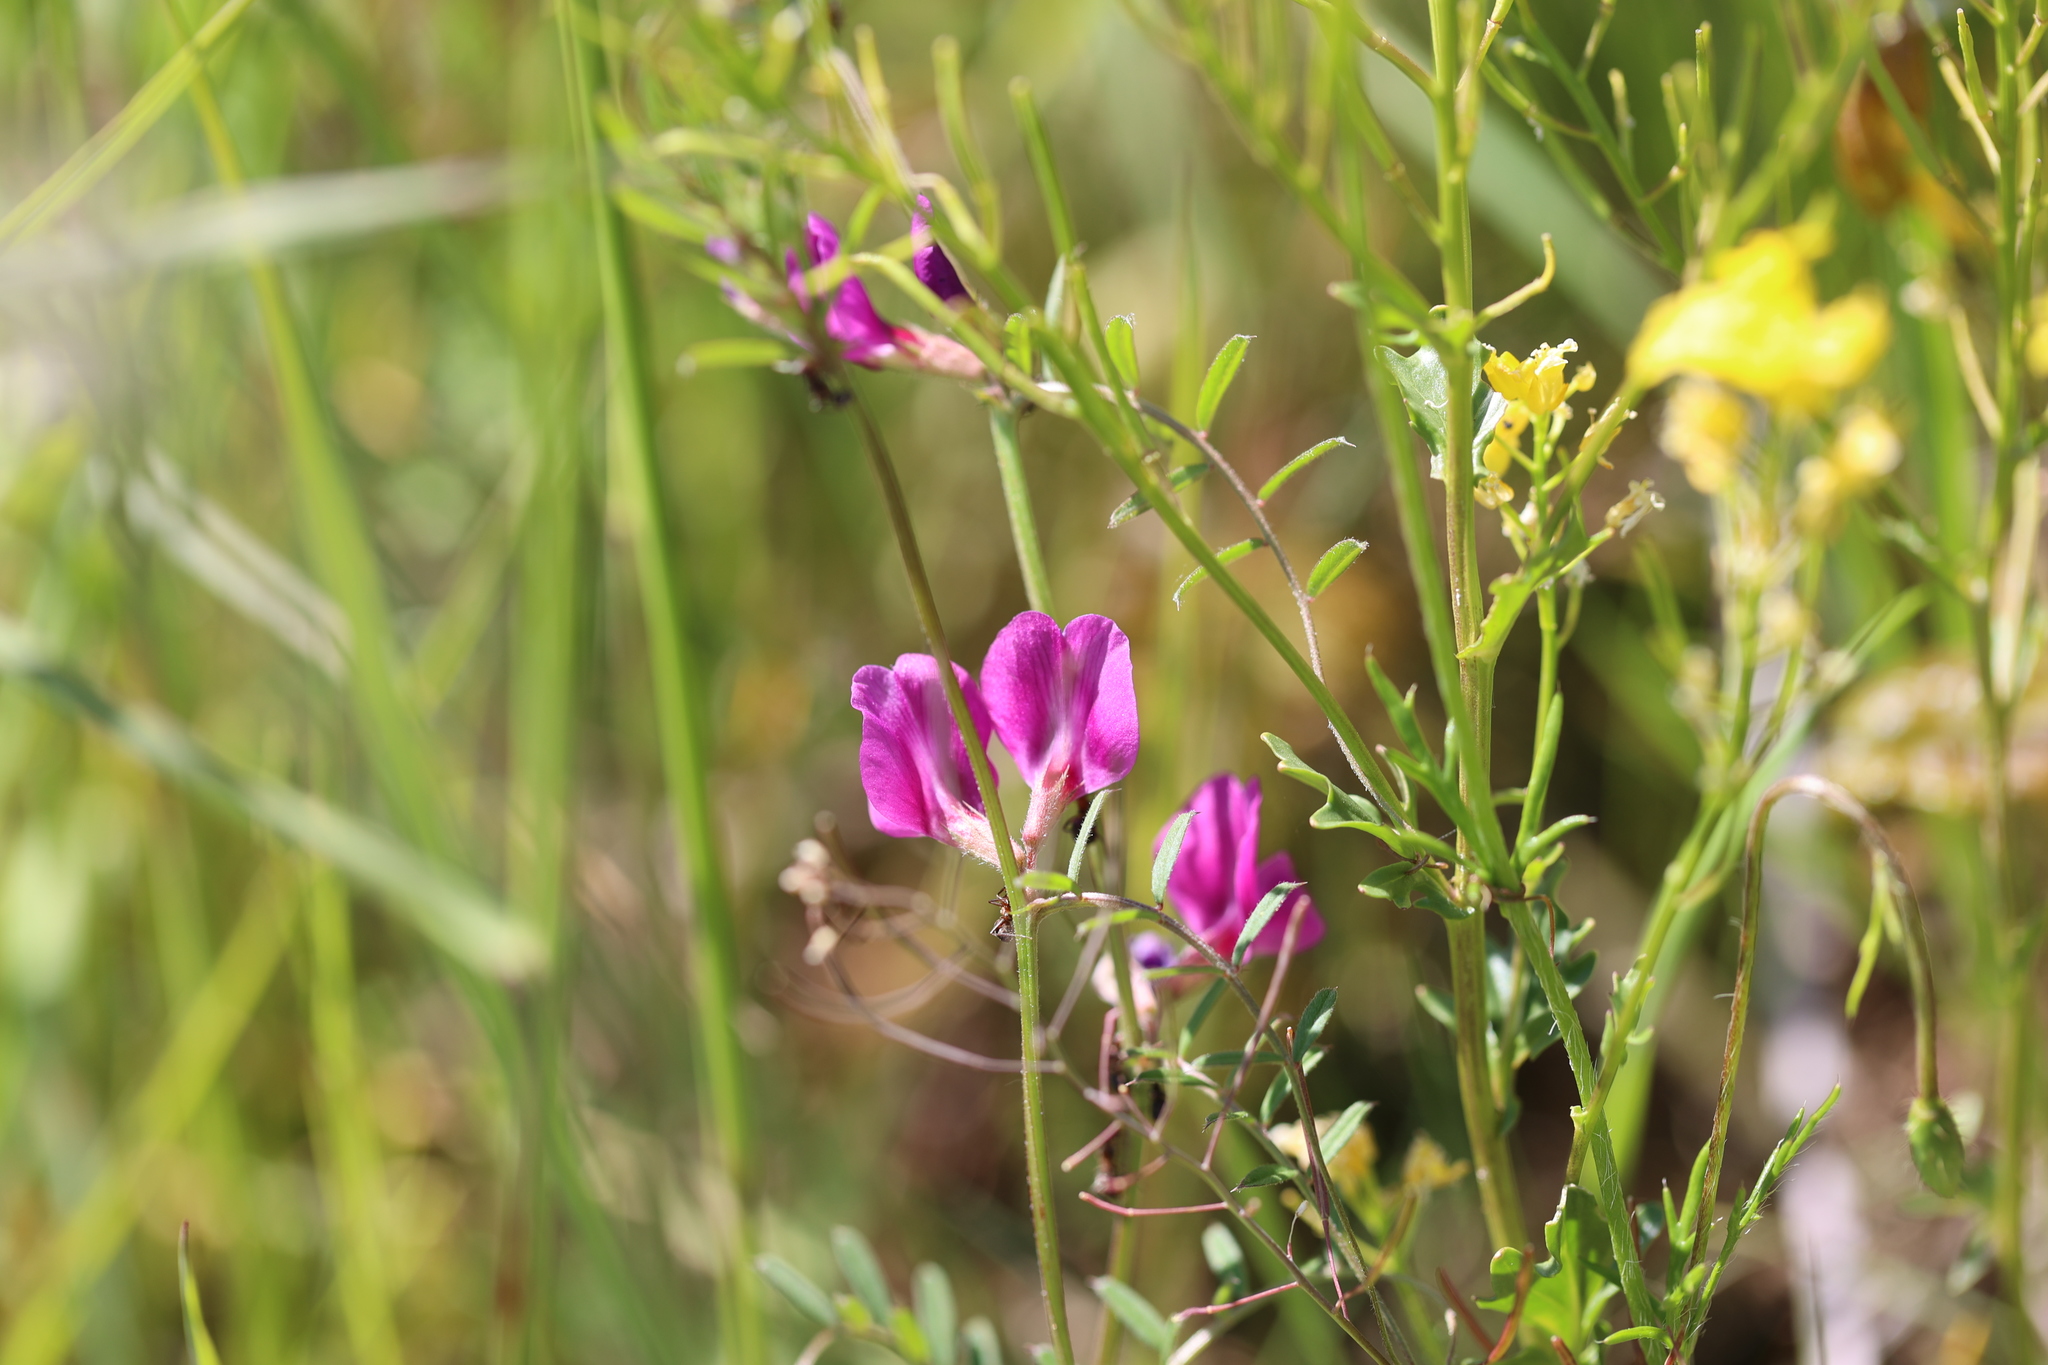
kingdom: Plantae
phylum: Tracheophyta
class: Magnoliopsida
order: Fabales
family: Fabaceae
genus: Vicia
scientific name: Vicia sativa
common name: Garden vetch
